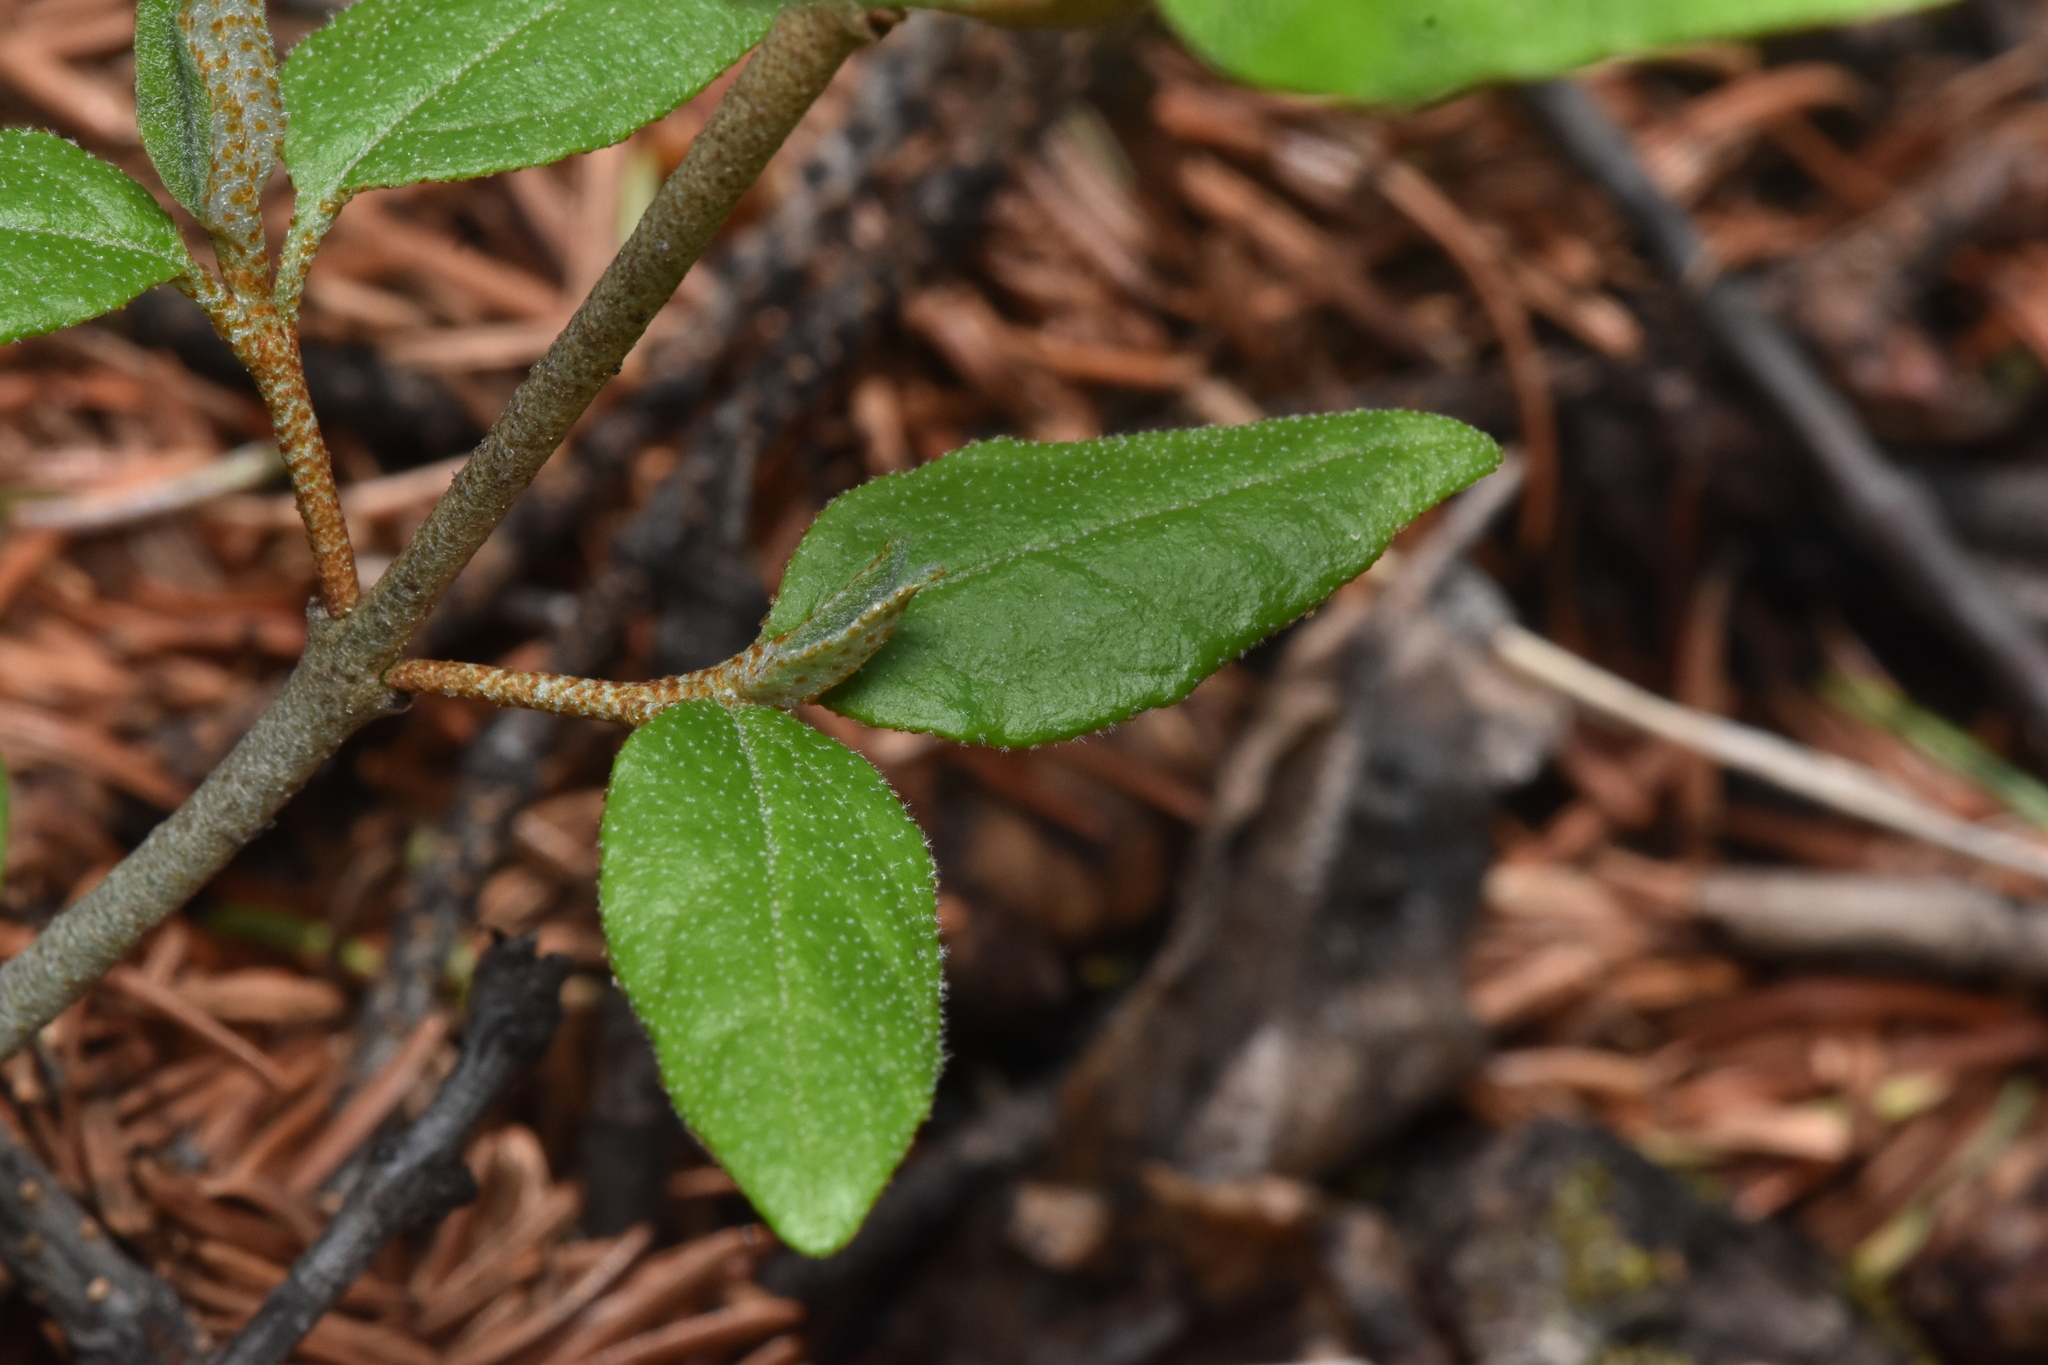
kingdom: Plantae
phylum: Tracheophyta
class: Magnoliopsida
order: Rosales
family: Elaeagnaceae
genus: Shepherdia
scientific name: Shepherdia canadensis
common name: Soapberry
